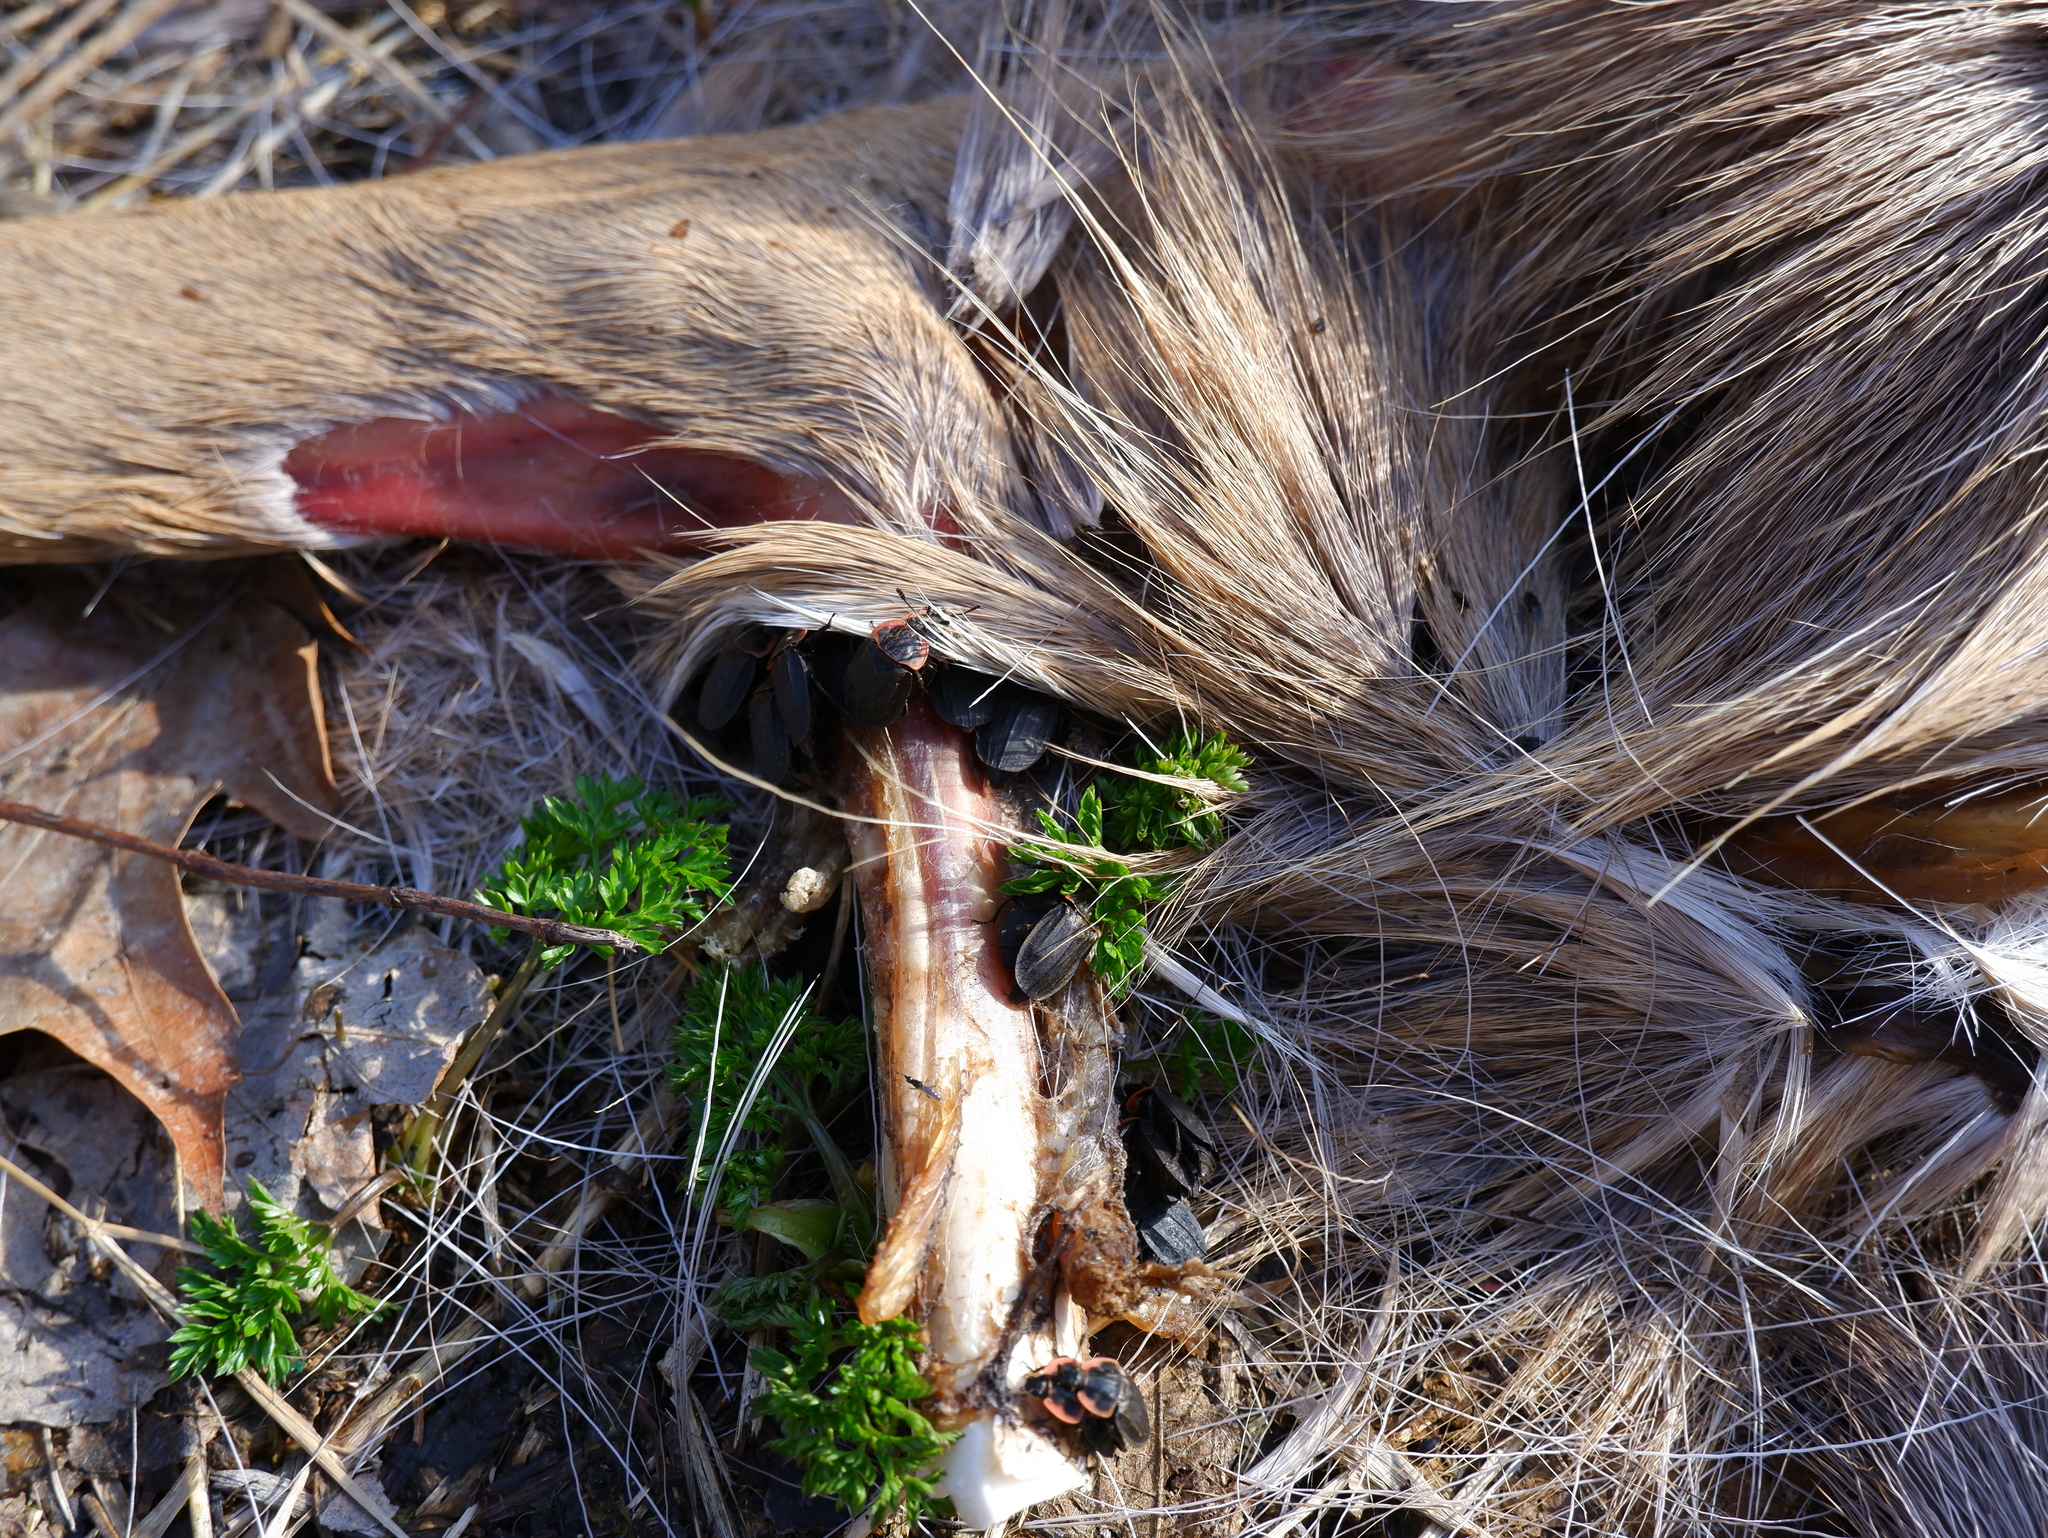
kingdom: Animalia
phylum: Arthropoda
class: Insecta
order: Coleoptera
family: Staphylinidae
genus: Oiceoptoma
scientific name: Oiceoptoma noveboracense
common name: Margined carrion beetle
